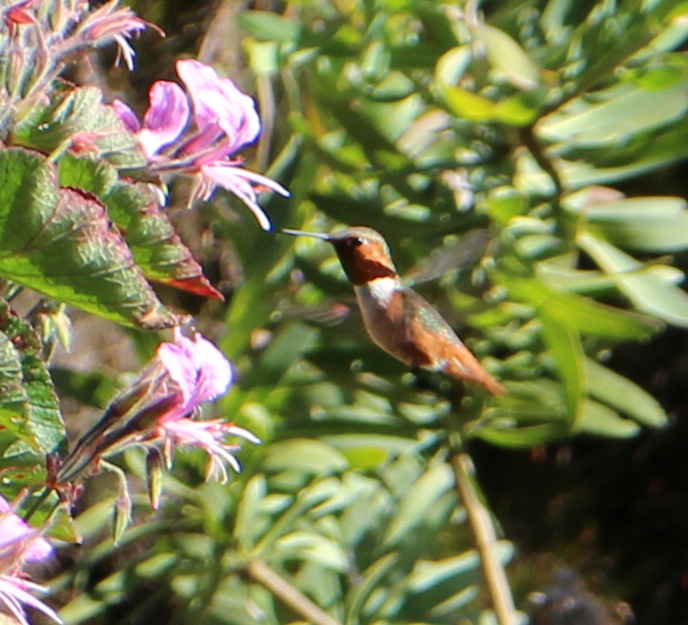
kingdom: Animalia
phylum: Chordata
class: Aves
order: Apodiformes
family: Trochilidae
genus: Selasphorus
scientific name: Selasphorus sasin
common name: Allen's hummingbird
